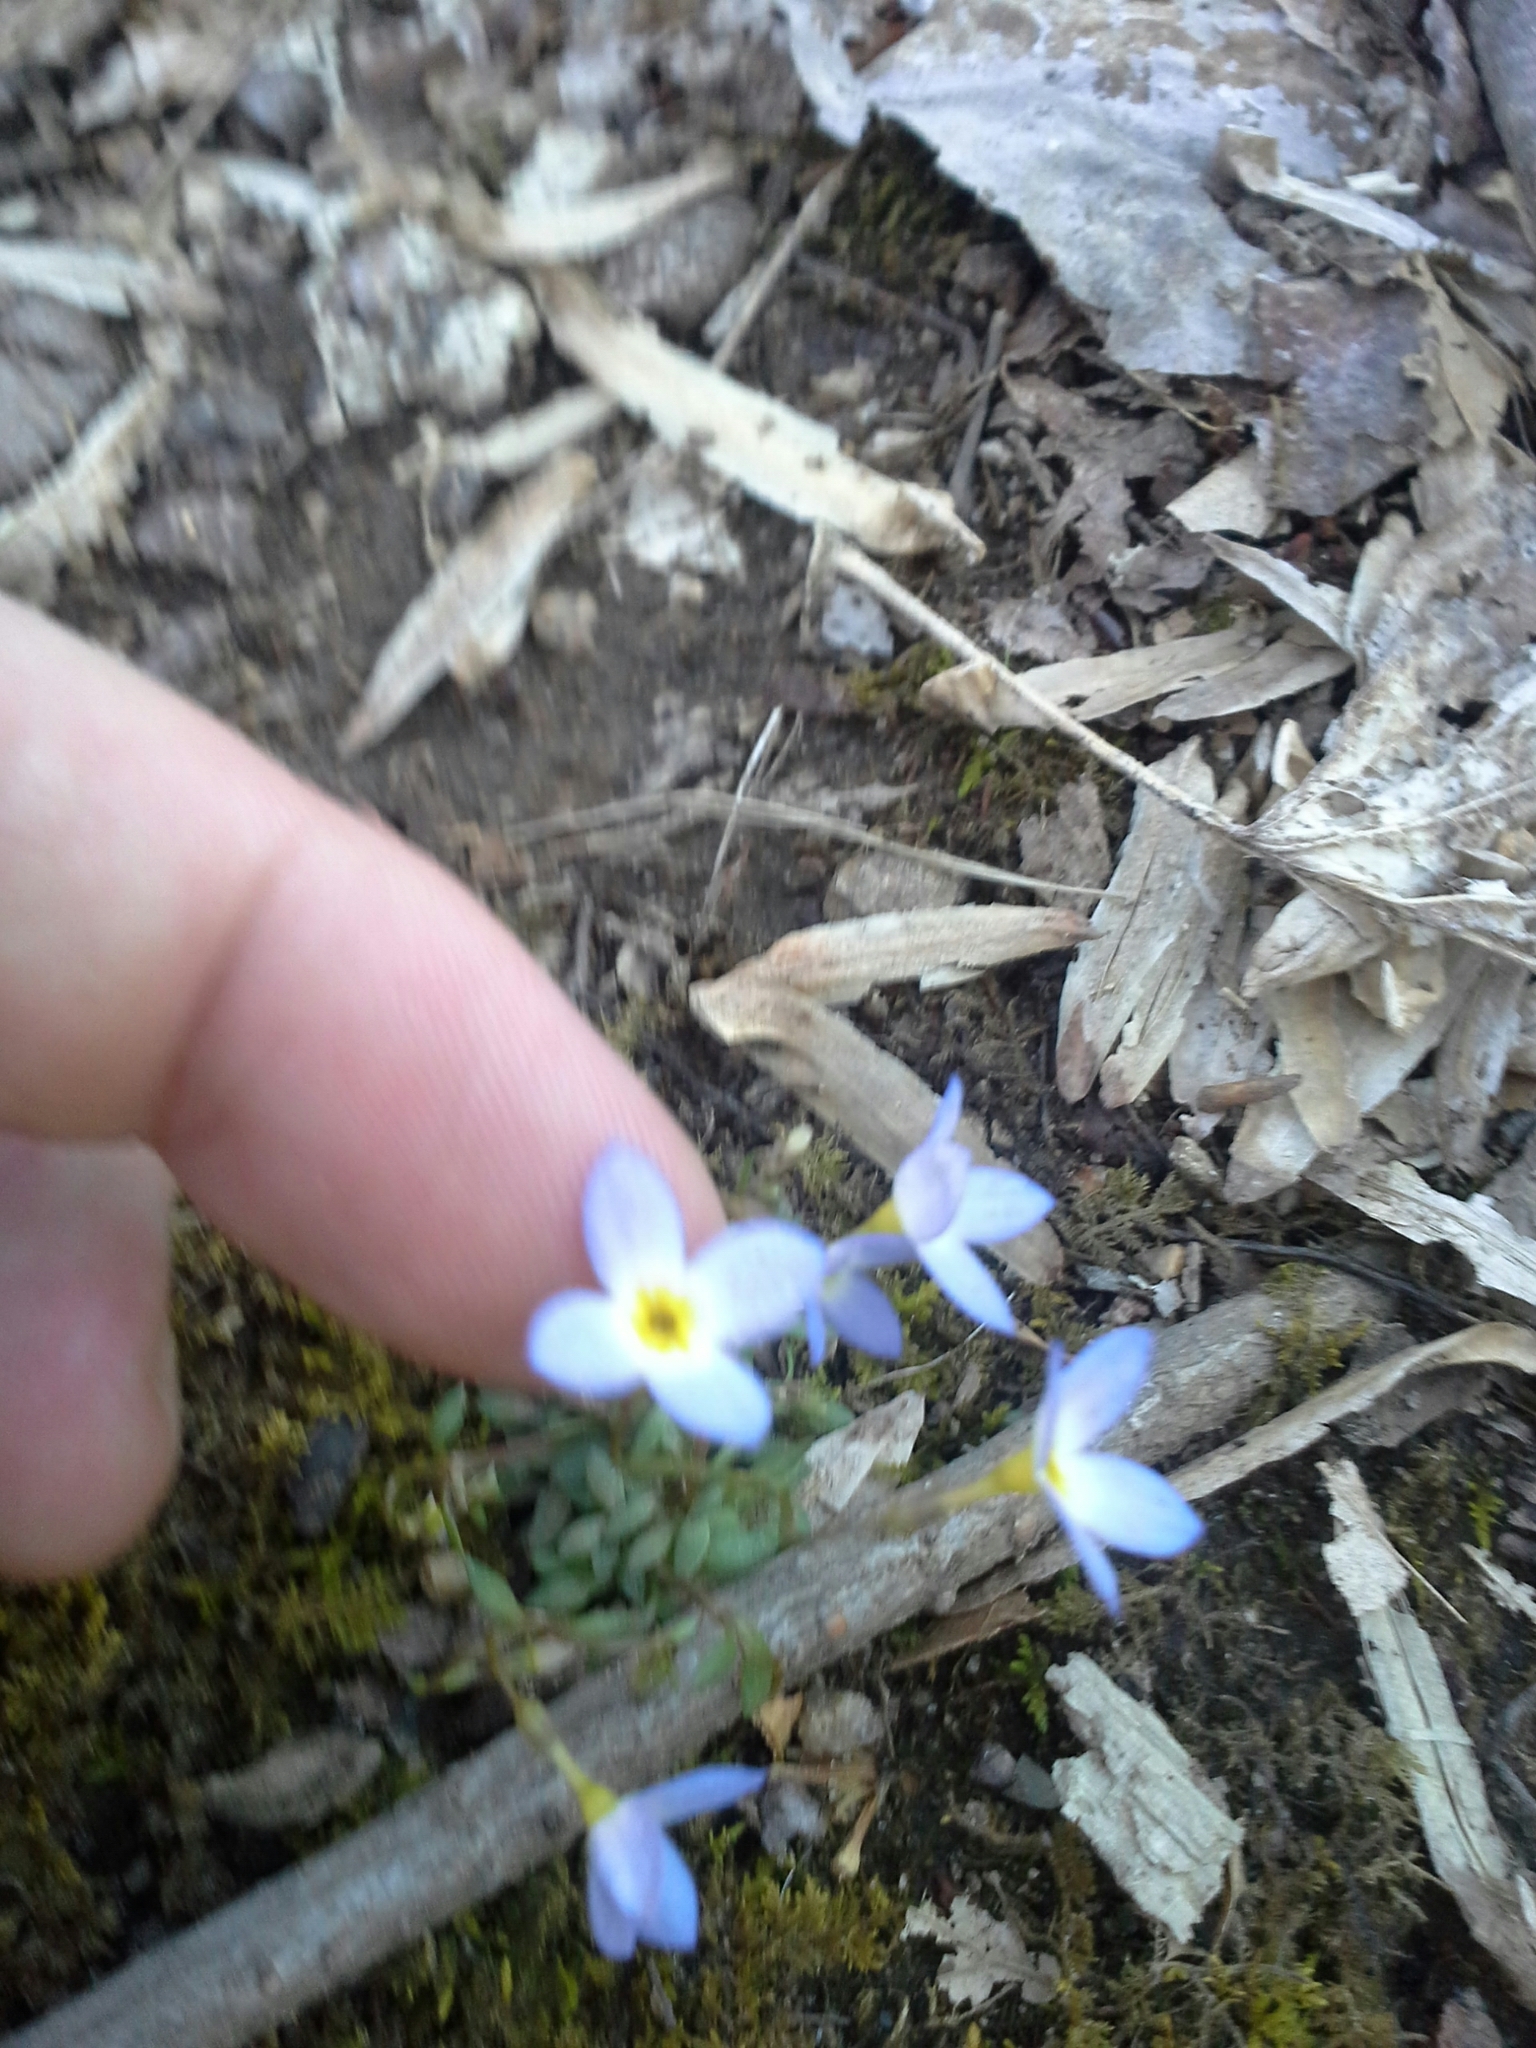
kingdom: Plantae
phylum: Tracheophyta
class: Magnoliopsida
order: Gentianales
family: Rubiaceae
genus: Houstonia
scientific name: Houstonia caerulea
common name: Bluets
